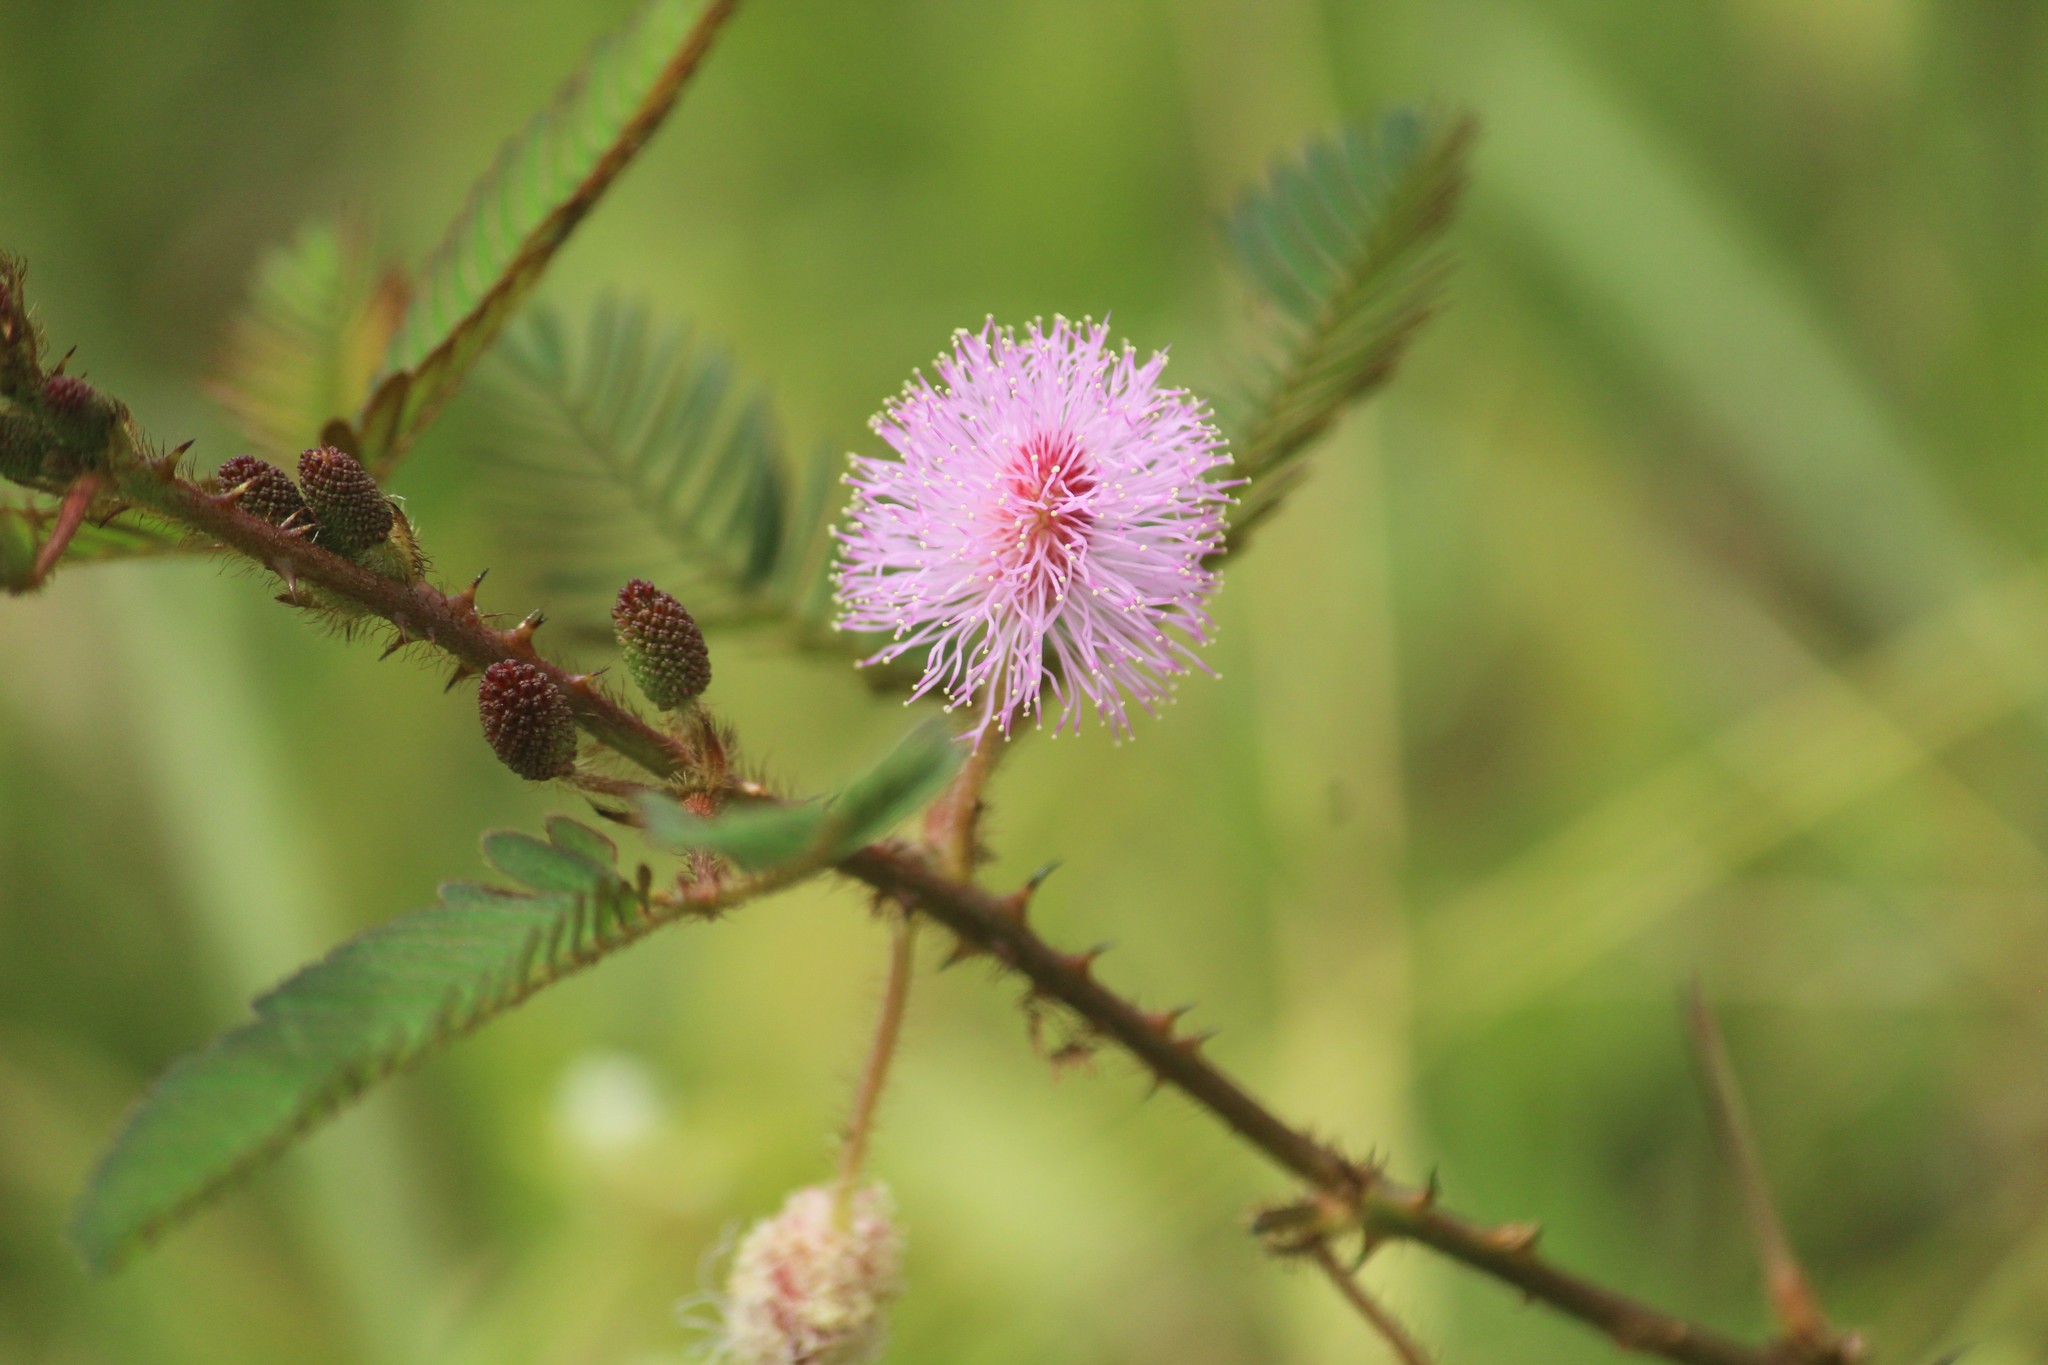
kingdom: Plantae
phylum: Tracheophyta
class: Magnoliopsida
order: Fabales
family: Fabaceae
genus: Mimosa
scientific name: Mimosa pudica
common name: Sensitive plant
